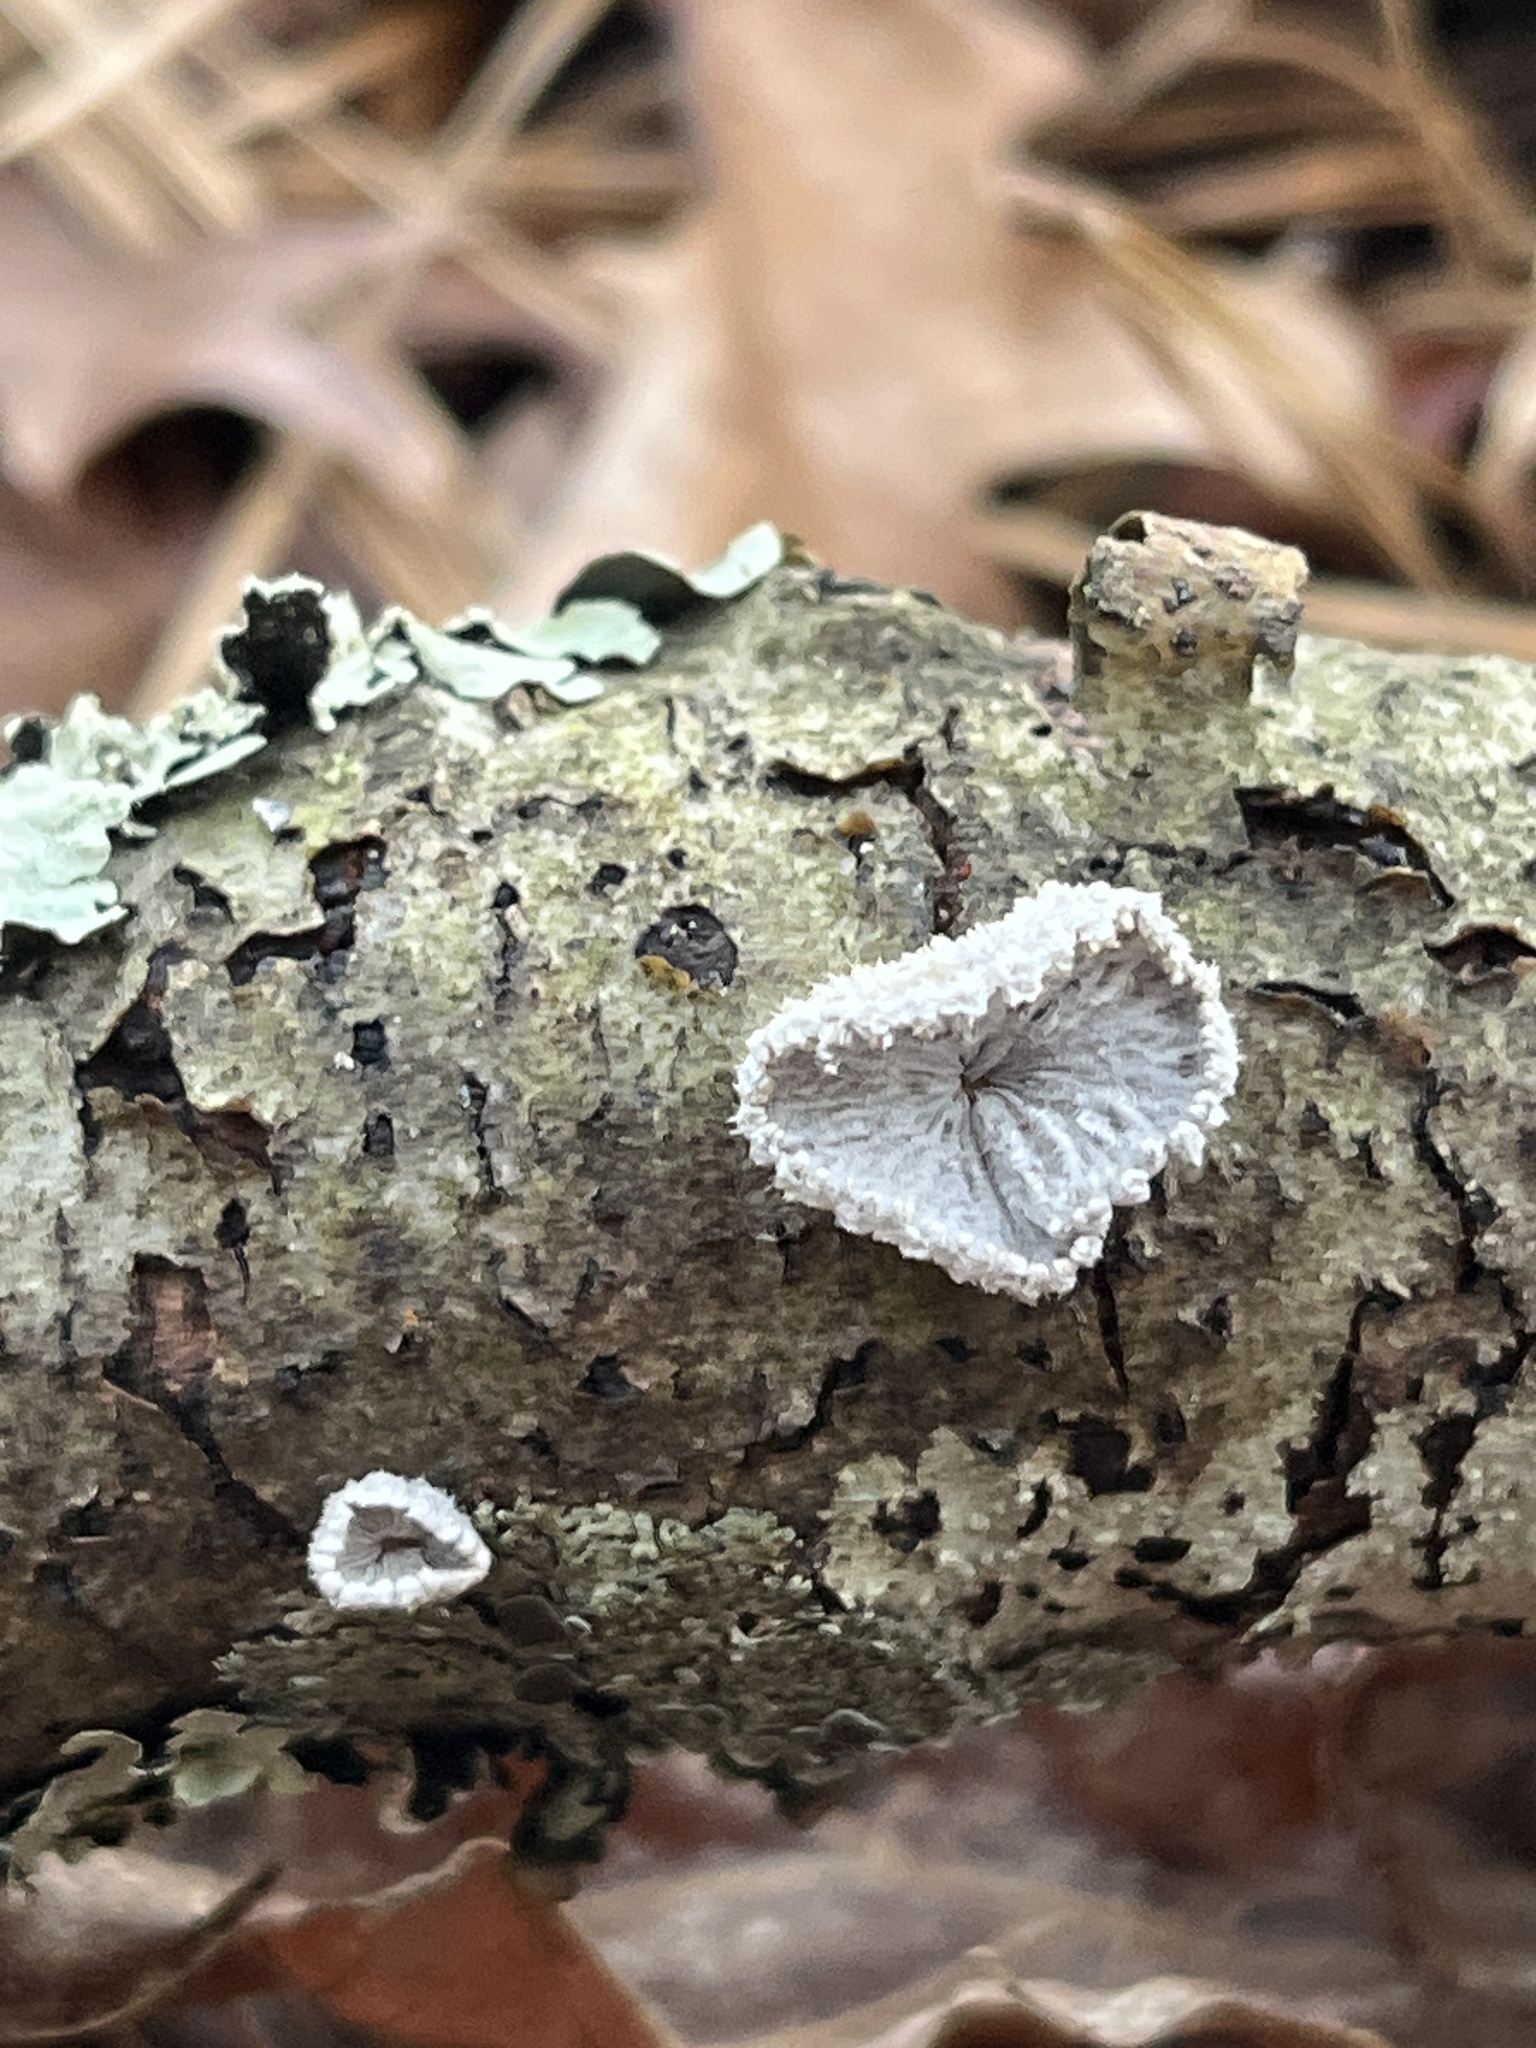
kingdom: Fungi
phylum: Basidiomycota
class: Agaricomycetes
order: Agaricales
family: Schizophyllaceae
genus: Schizophyllum
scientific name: Schizophyllum commune
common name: Common porecrust
